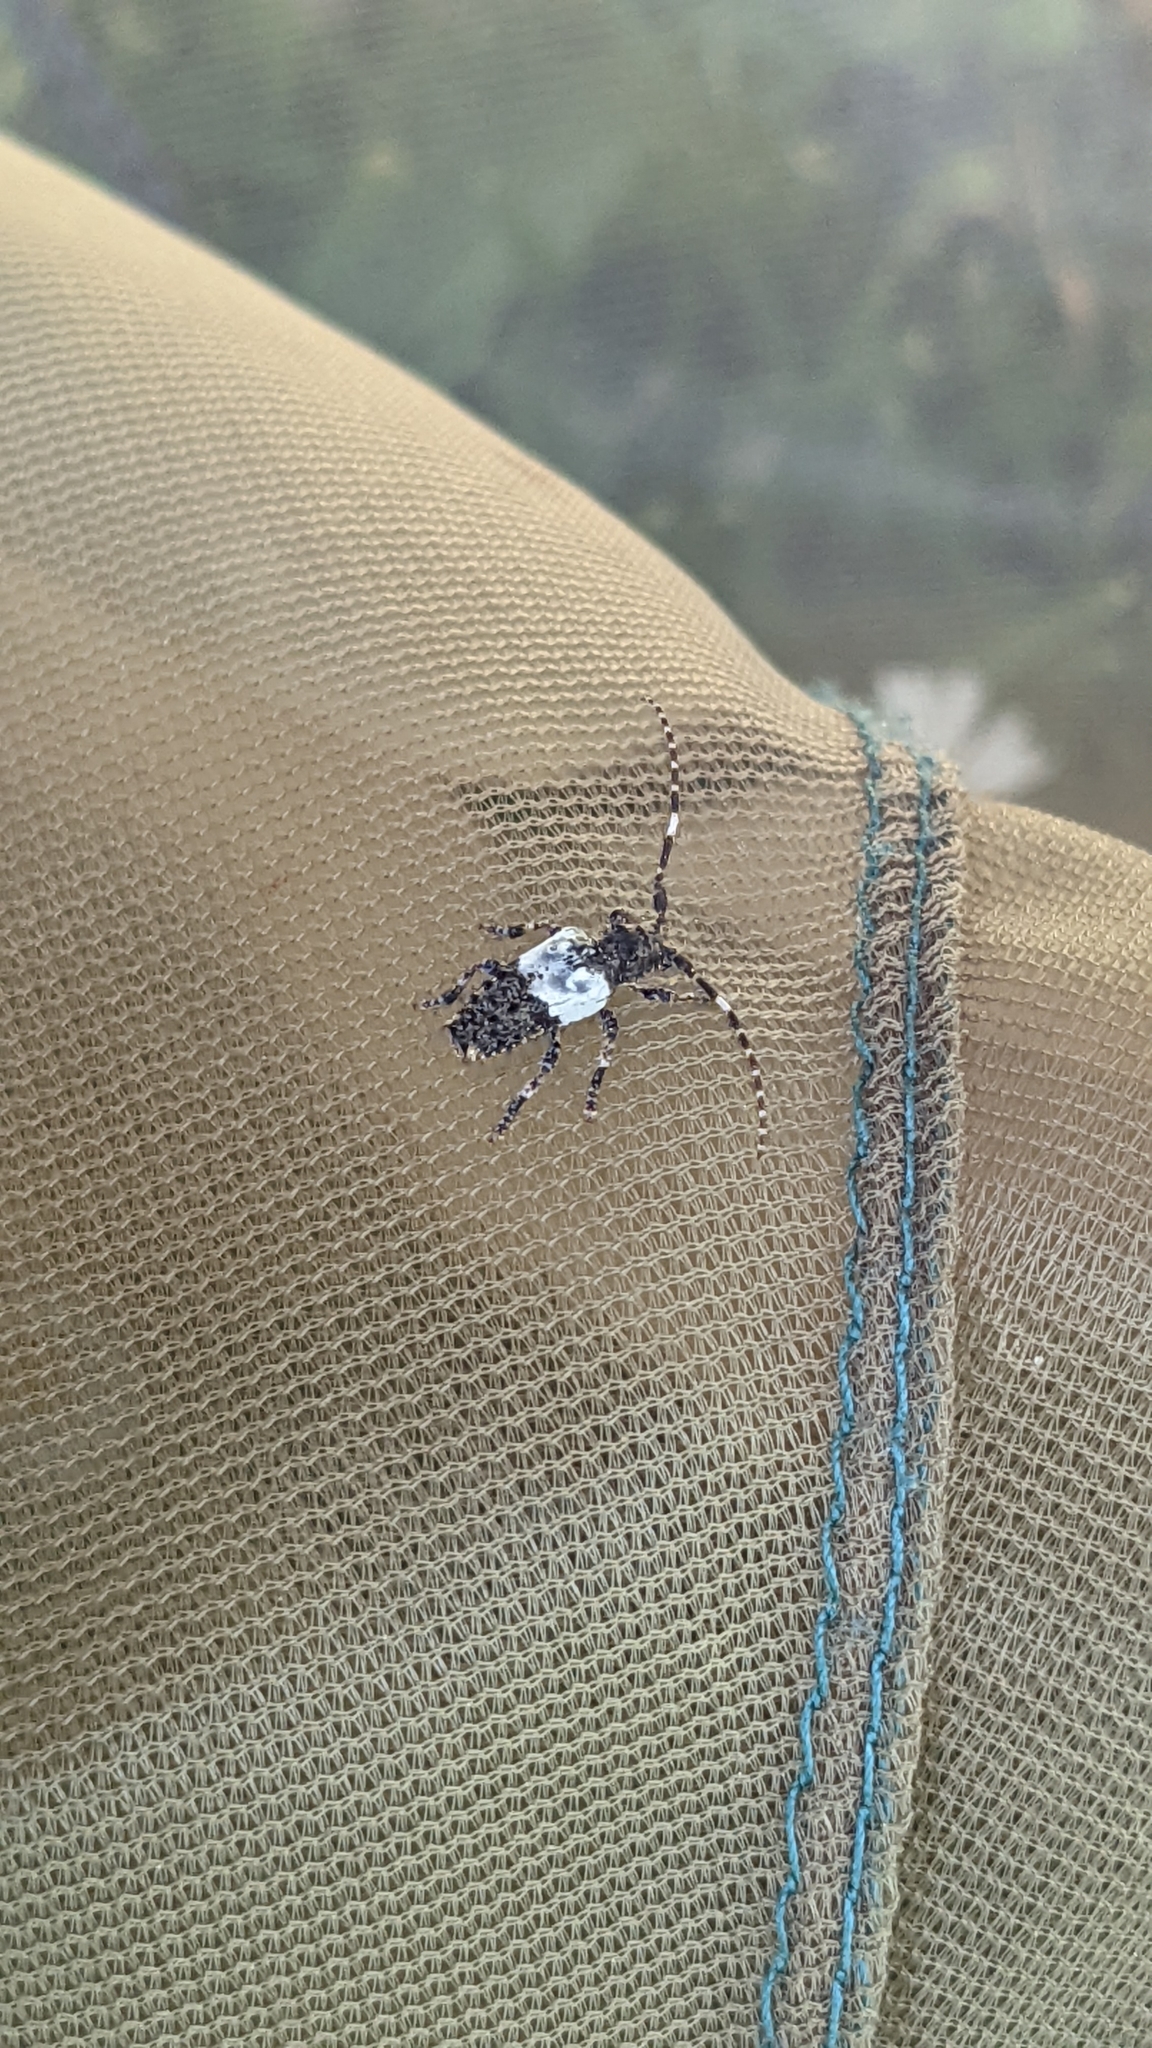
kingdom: Animalia
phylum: Arthropoda
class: Insecta
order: Coleoptera
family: Cerambycidae
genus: Pogonocherus
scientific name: Pogonocherus hispidulus
